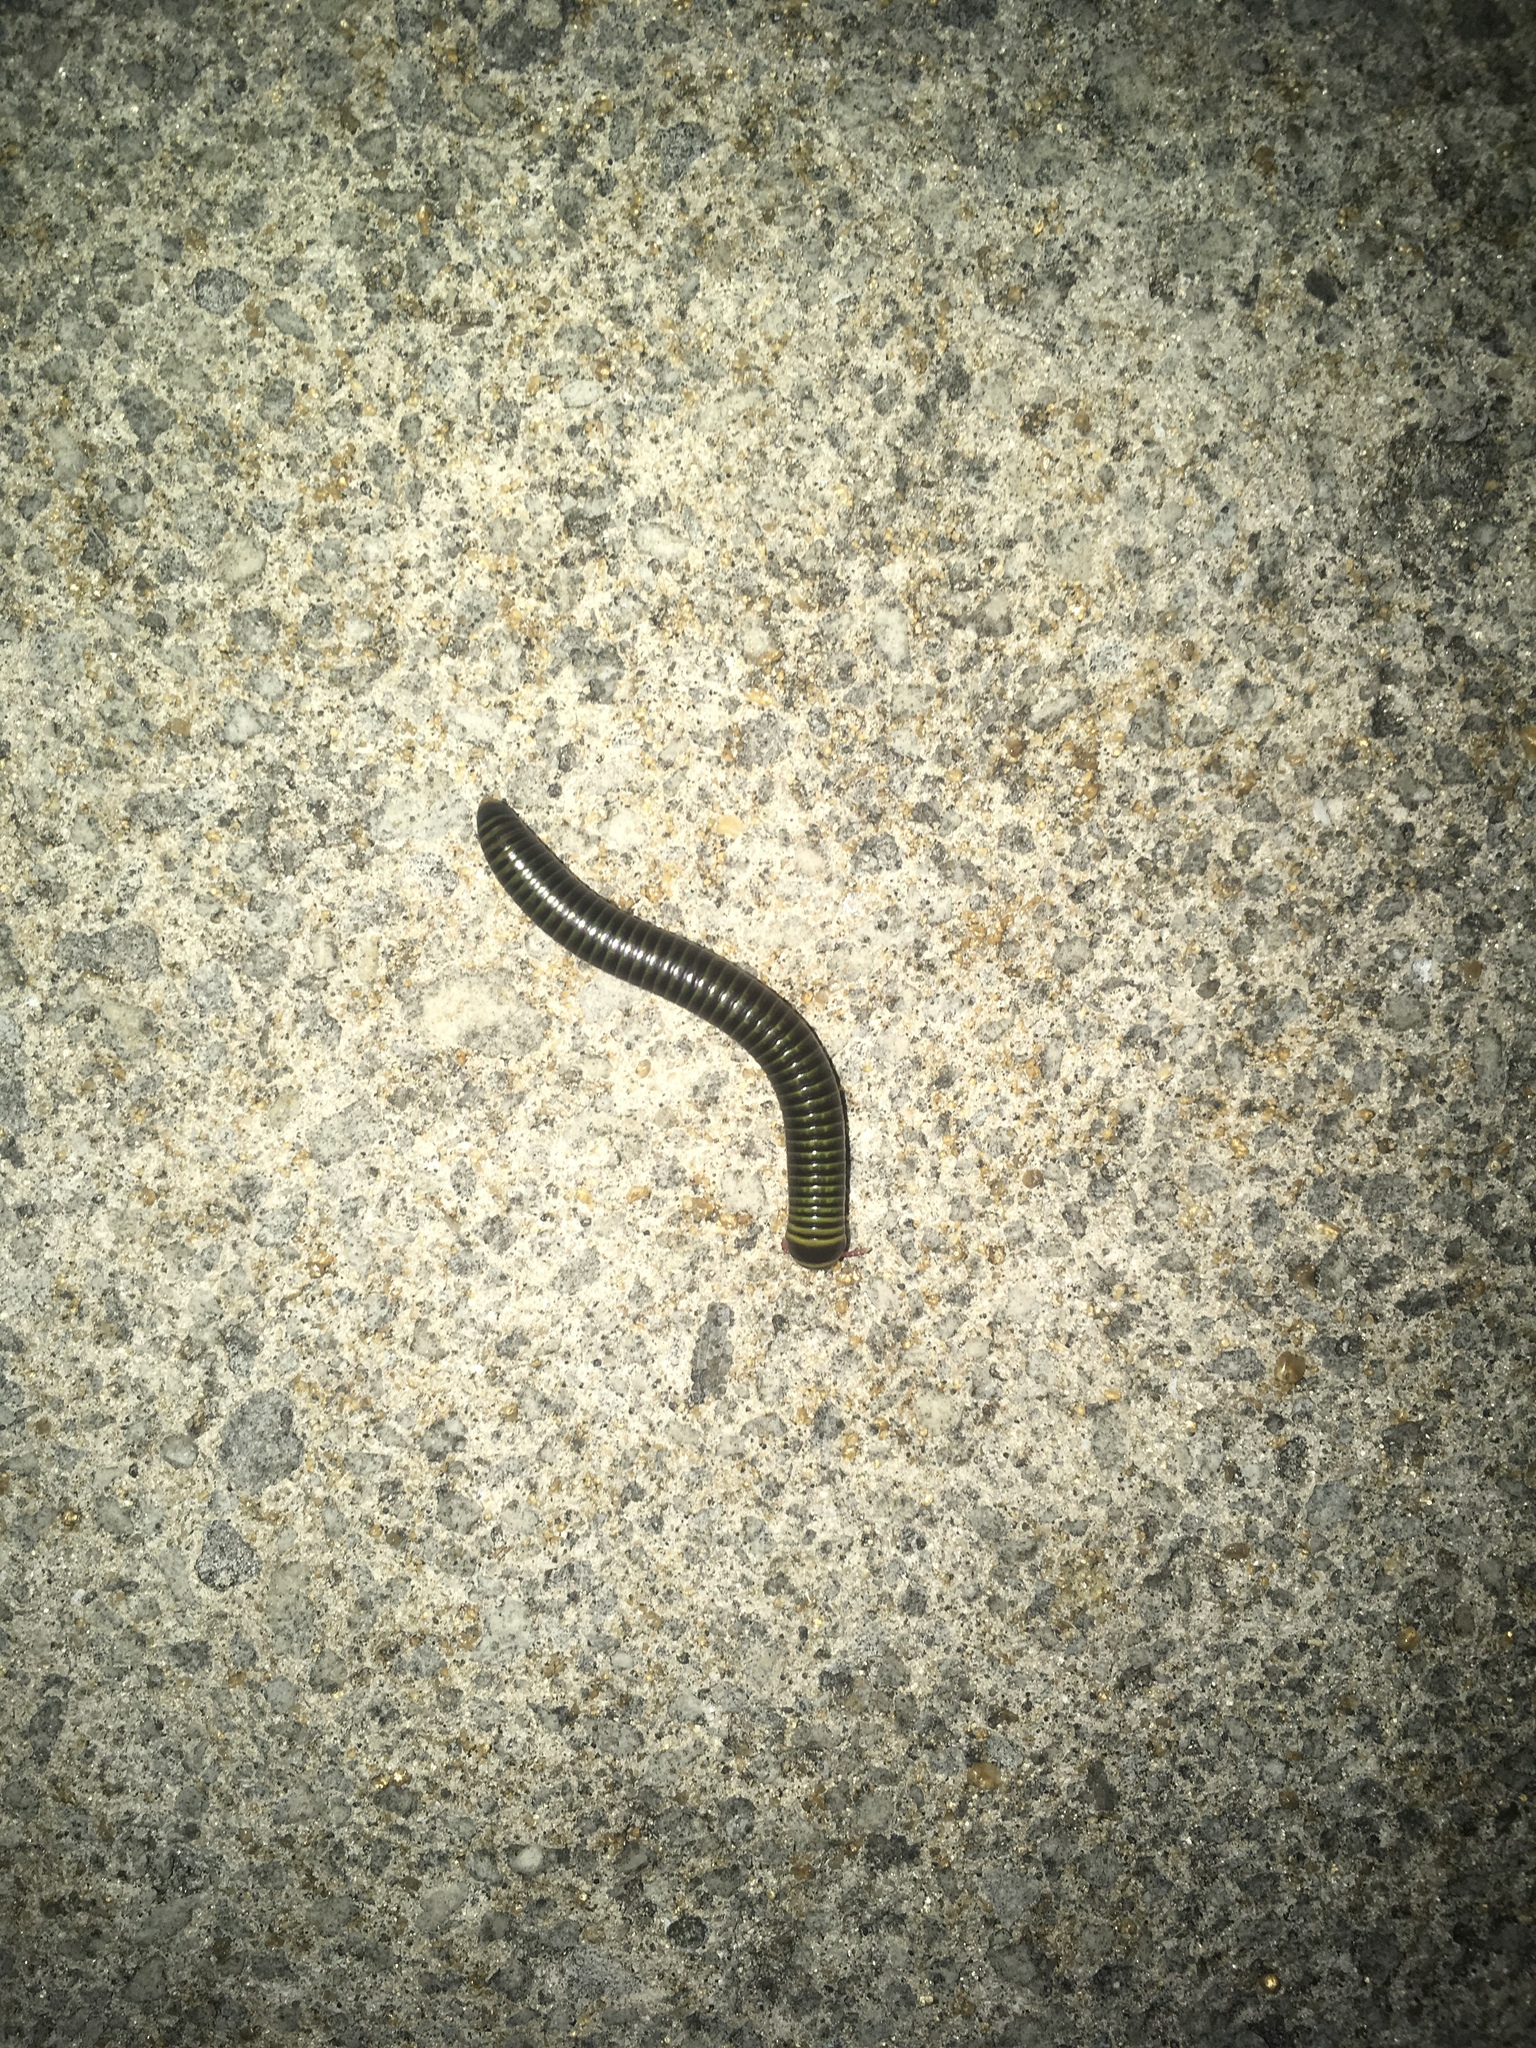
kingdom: Animalia
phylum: Arthropoda
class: Diplopoda
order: Spirobolida
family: Rhinocricidae
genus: Anadenobolus
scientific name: Anadenobolus monilicornis
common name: Caribbean millipede
